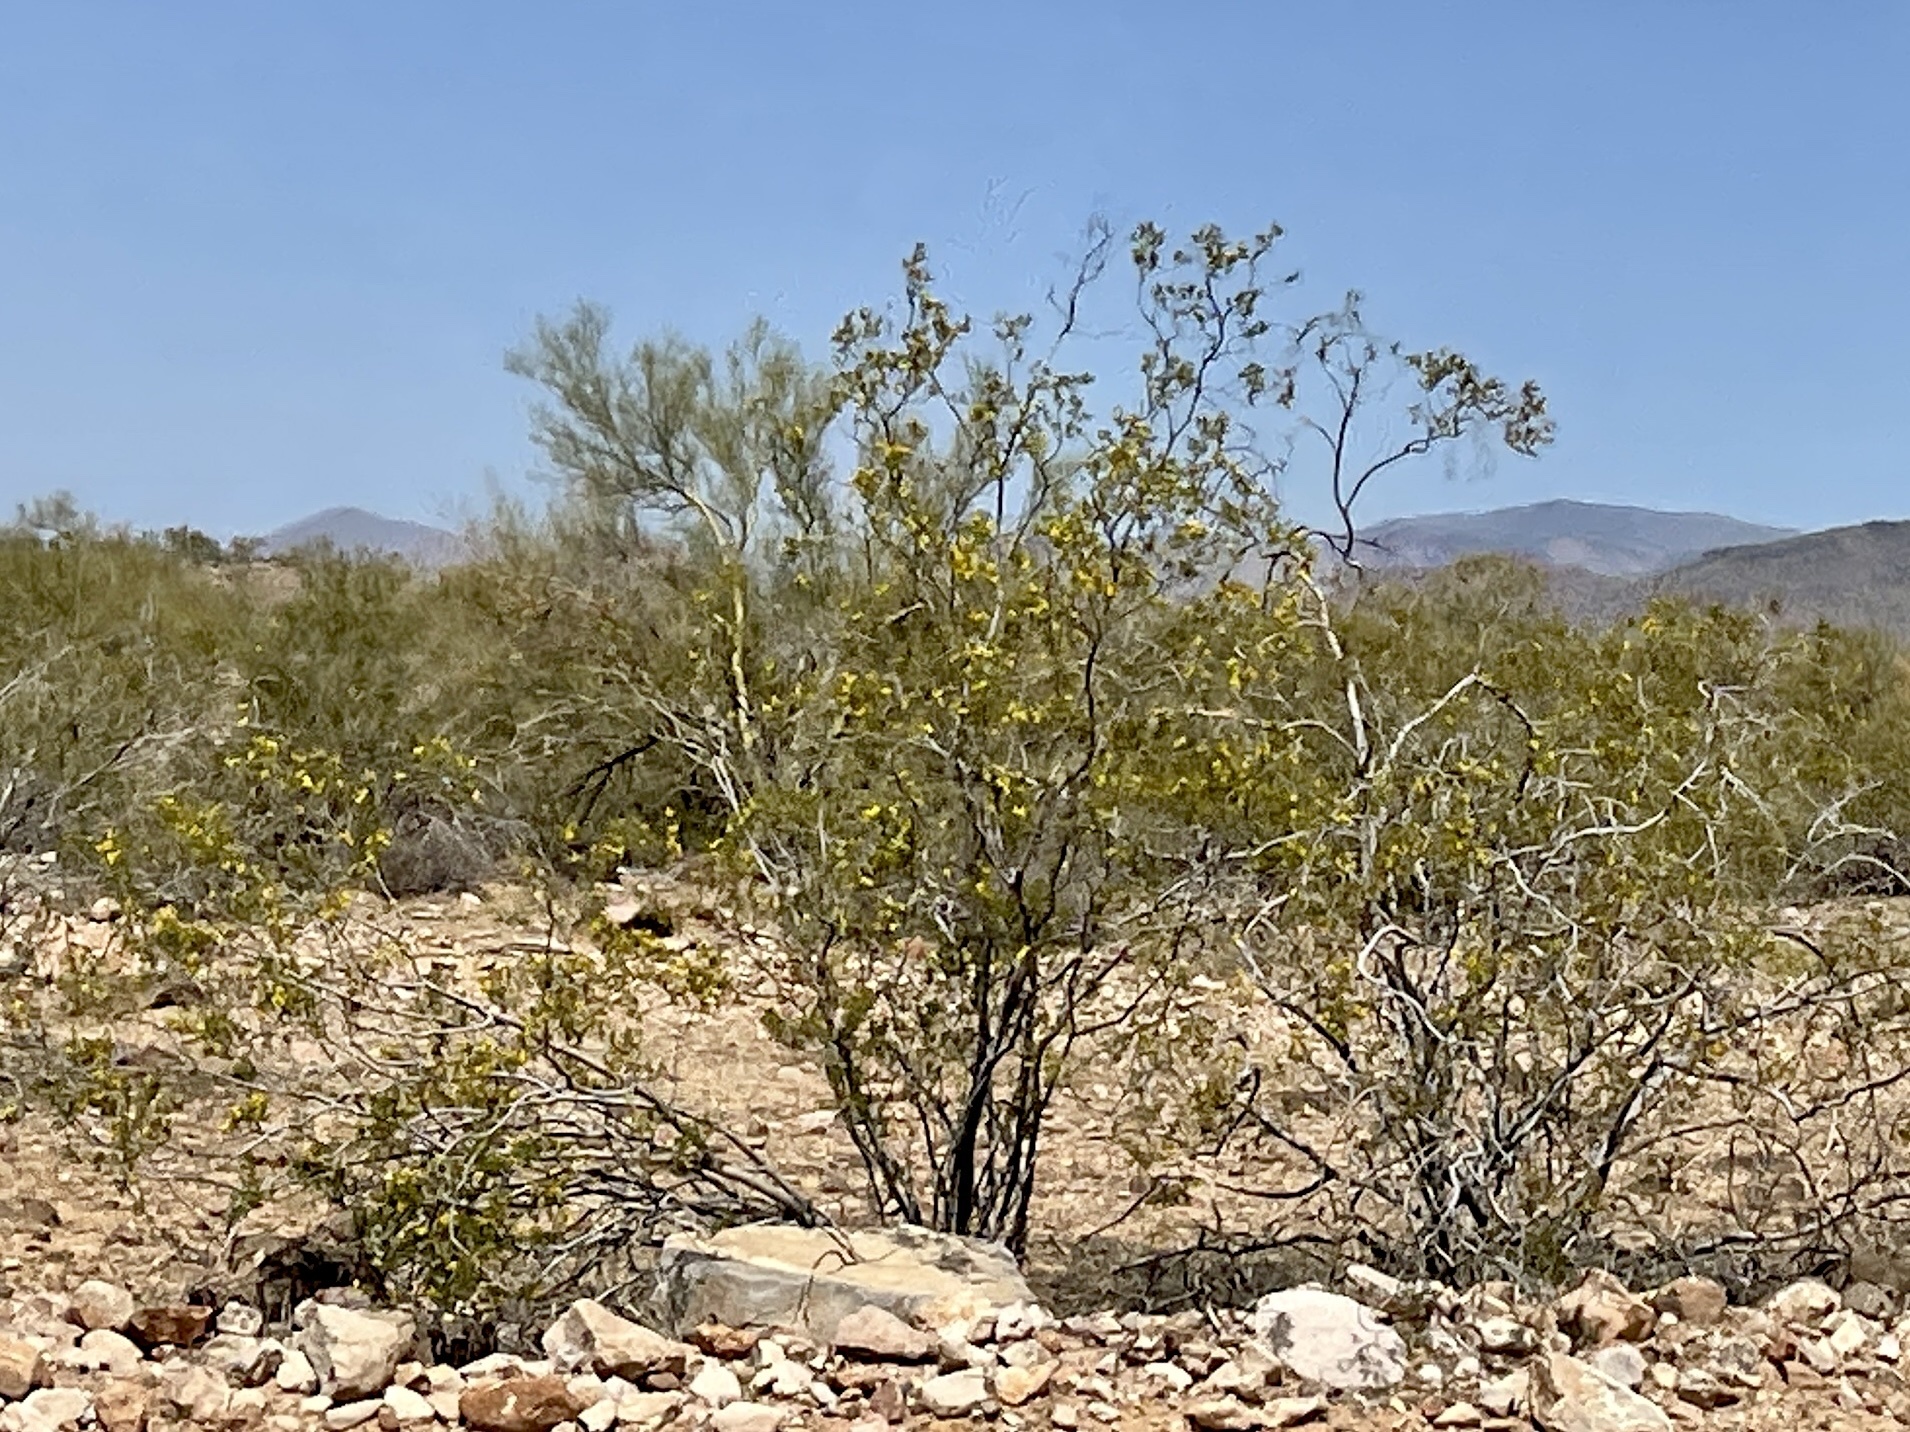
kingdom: Plantae
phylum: Tracheophyta
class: Magnoliopsida
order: Zygophyllales
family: Zygophyllaceae
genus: Larrea
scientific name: Larrea tridentata
